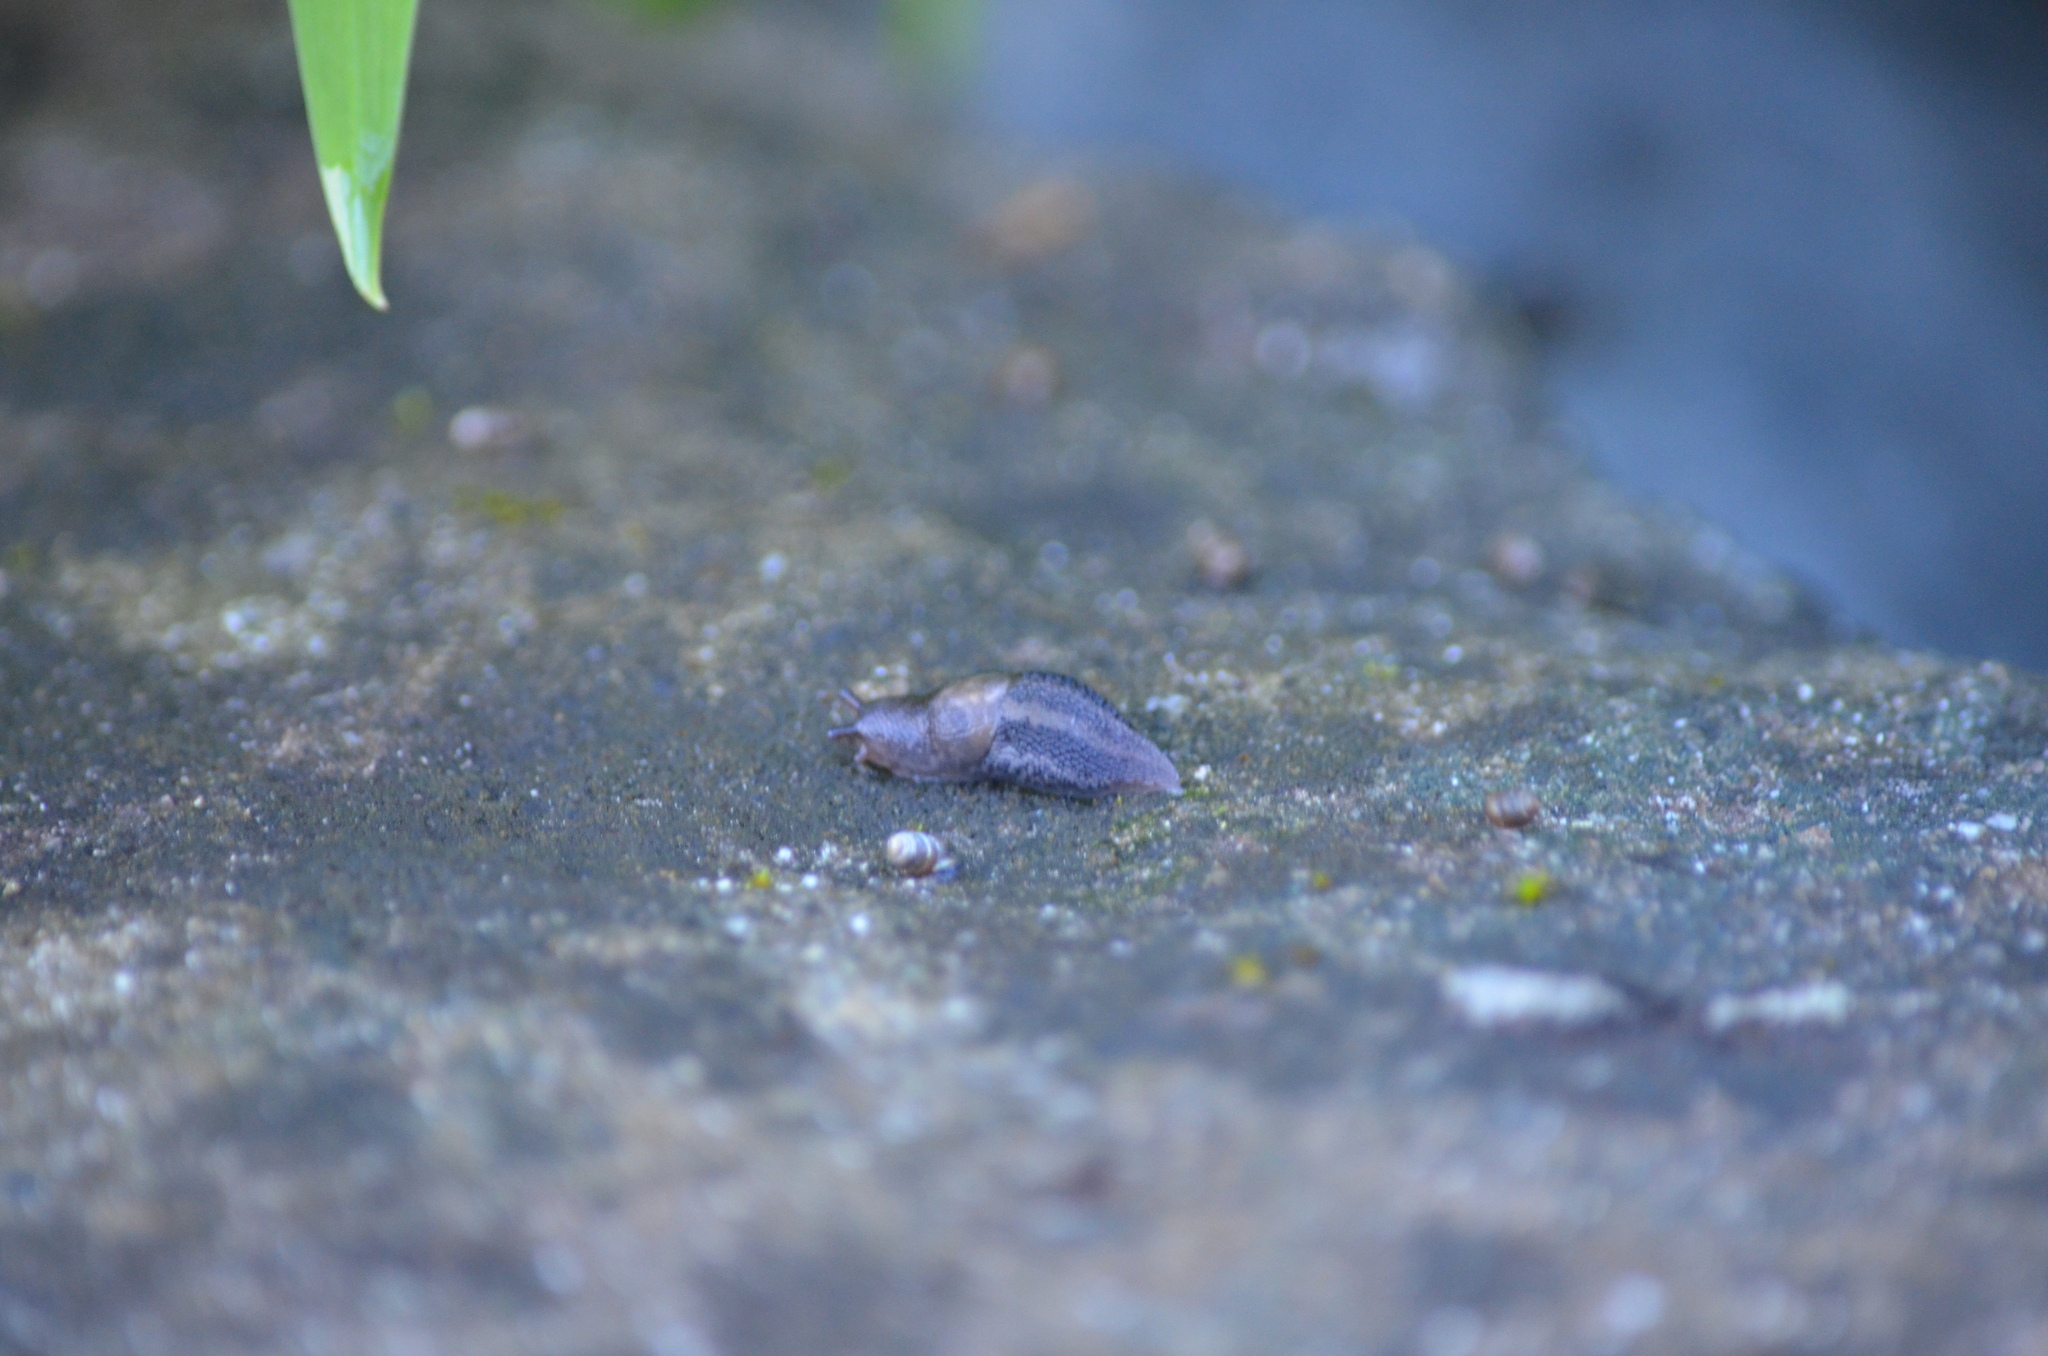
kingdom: Animalia
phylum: Mollusca
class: Gastropoda
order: Stylommatophora
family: Limacidae
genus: Limax
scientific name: Limax maximus
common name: Great grey slug
